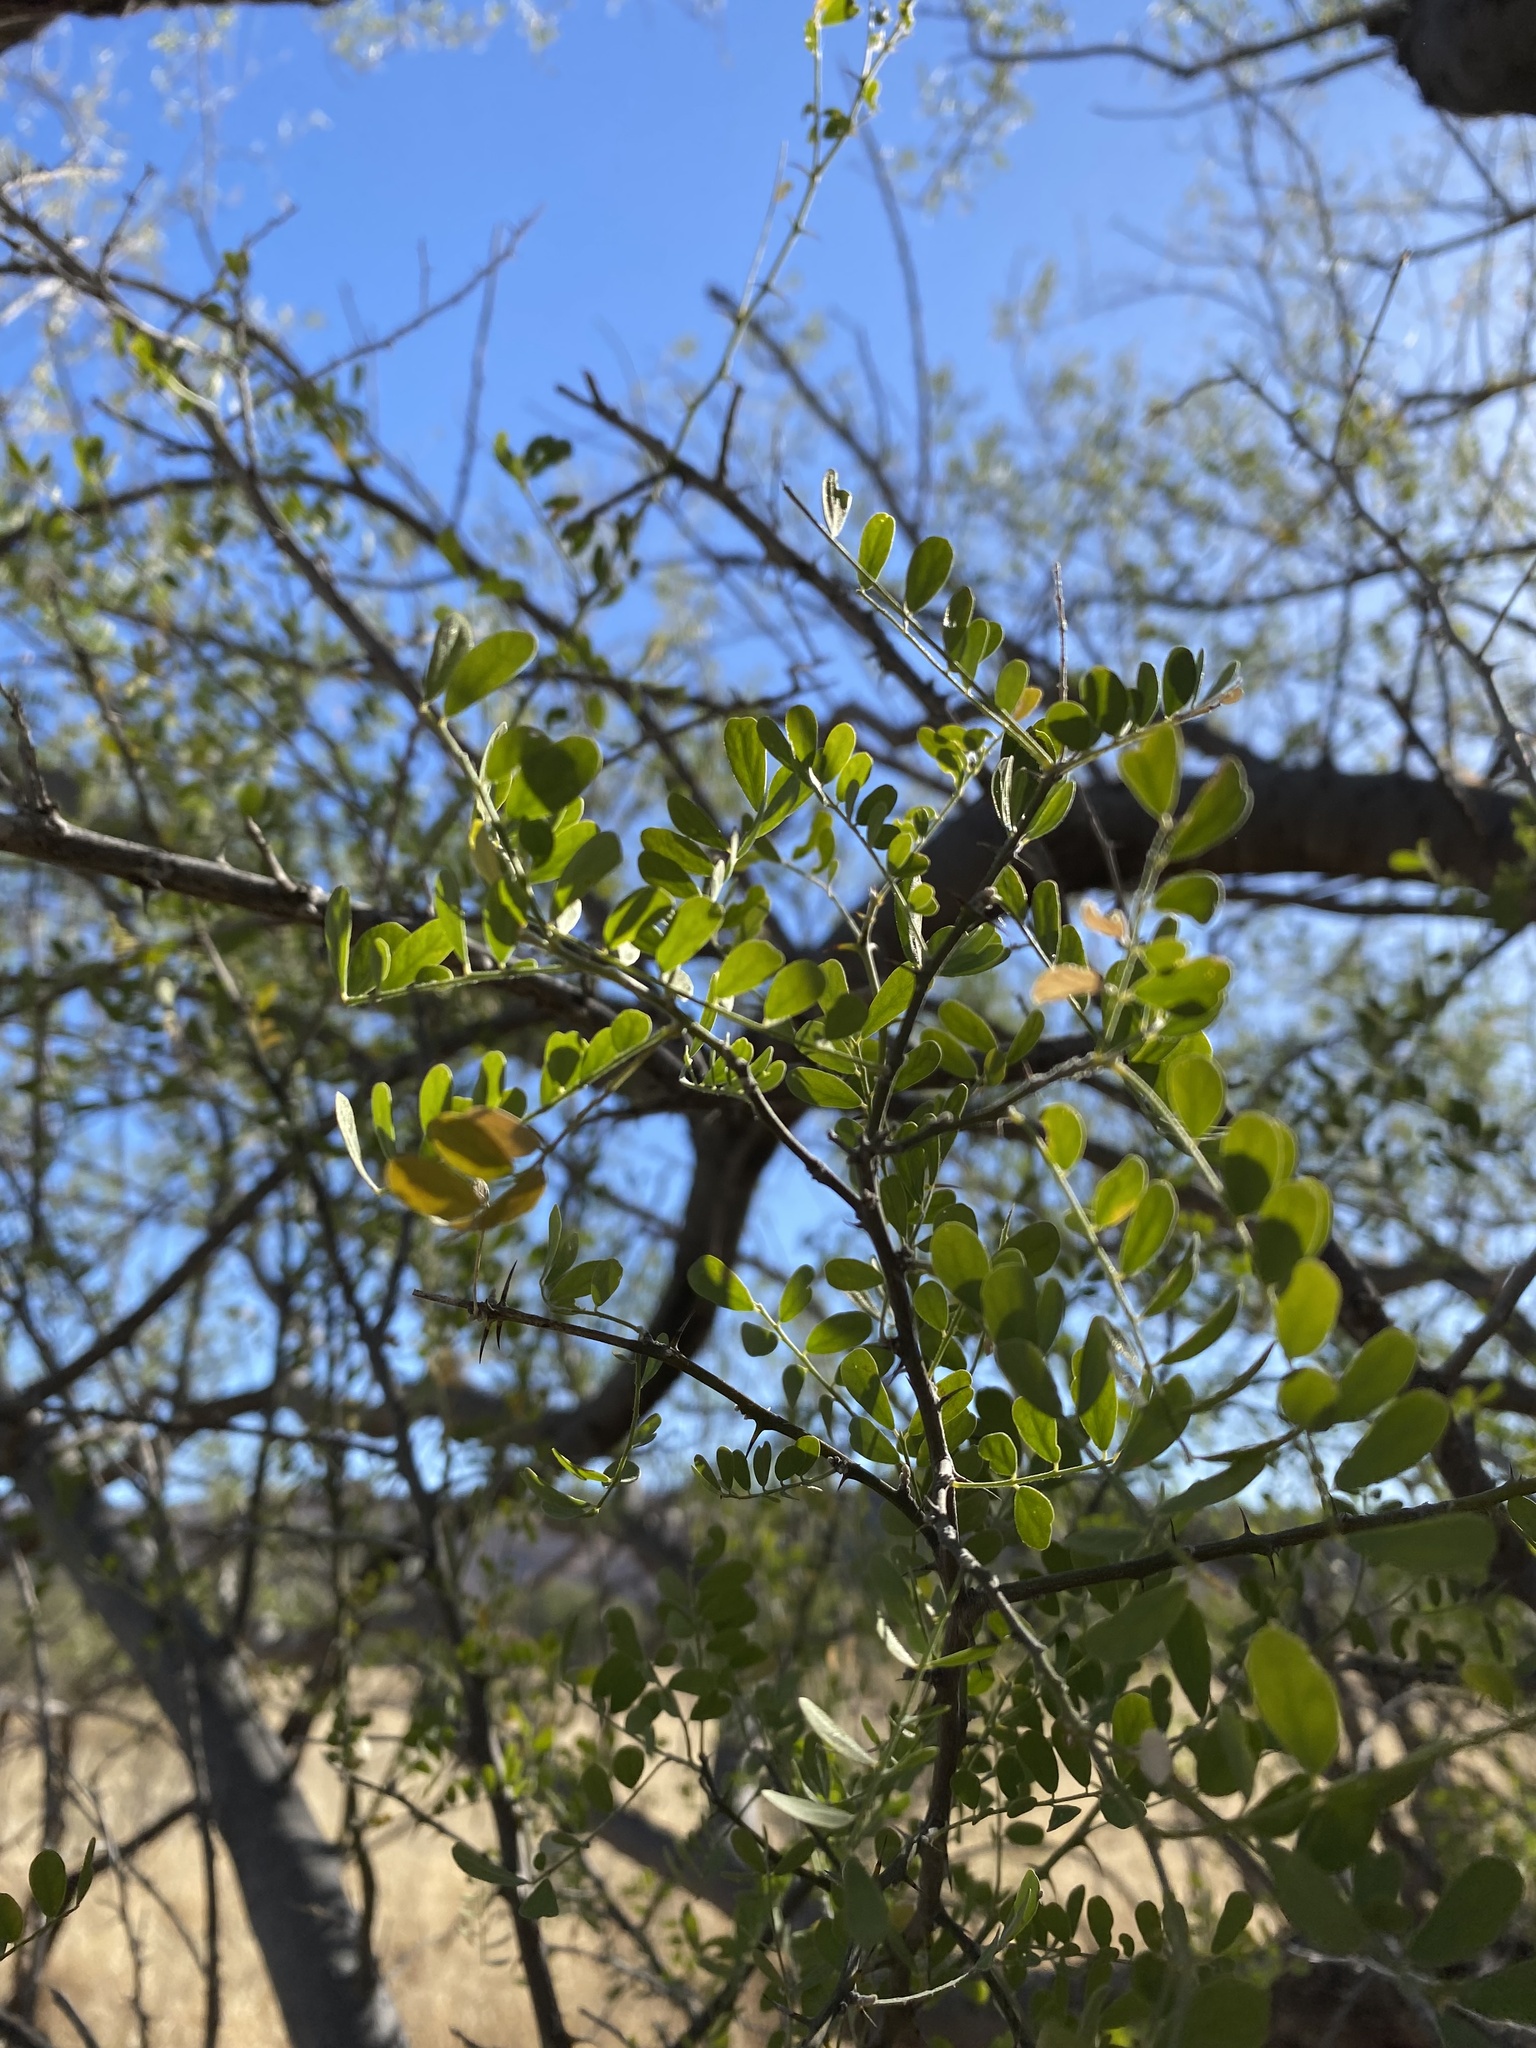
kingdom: Plantae
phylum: Tracheophyta
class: Magnoliopsida
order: Fabales
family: Fabaceae
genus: Olneya
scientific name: Olneya tesota
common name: Desert ironwood
